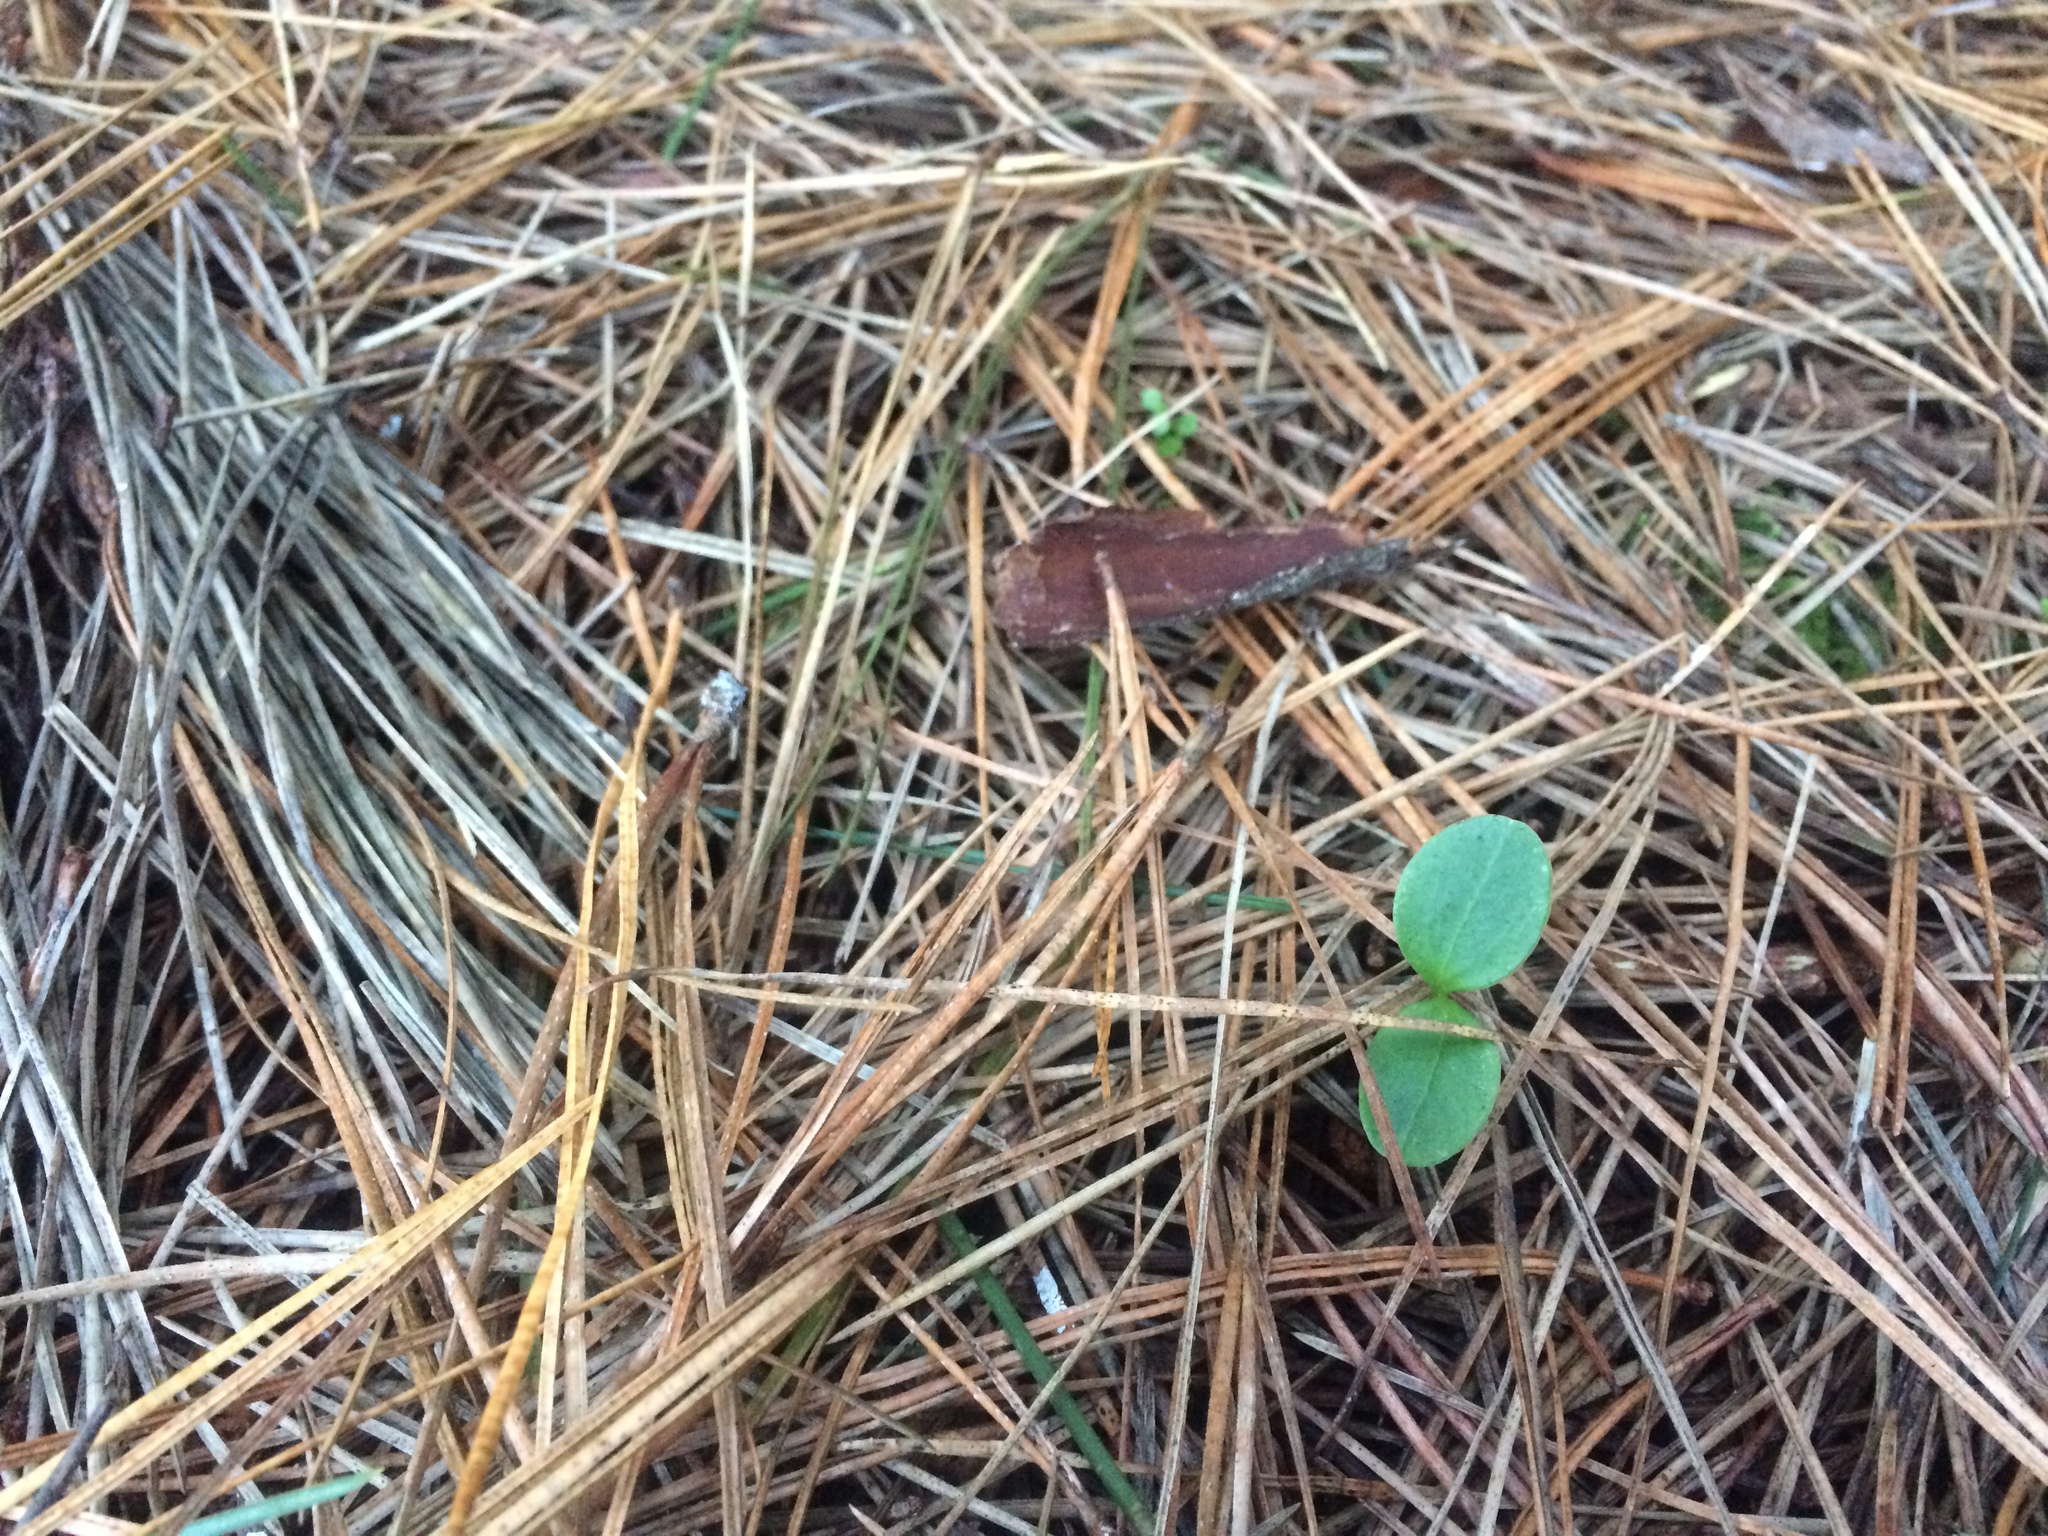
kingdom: Plantae
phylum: Tracheophyta
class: Magnoliopsida
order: Apiales
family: Griseliniaceae
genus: Griselinia
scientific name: Griselinia littoralis
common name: New zealand broadleaf
